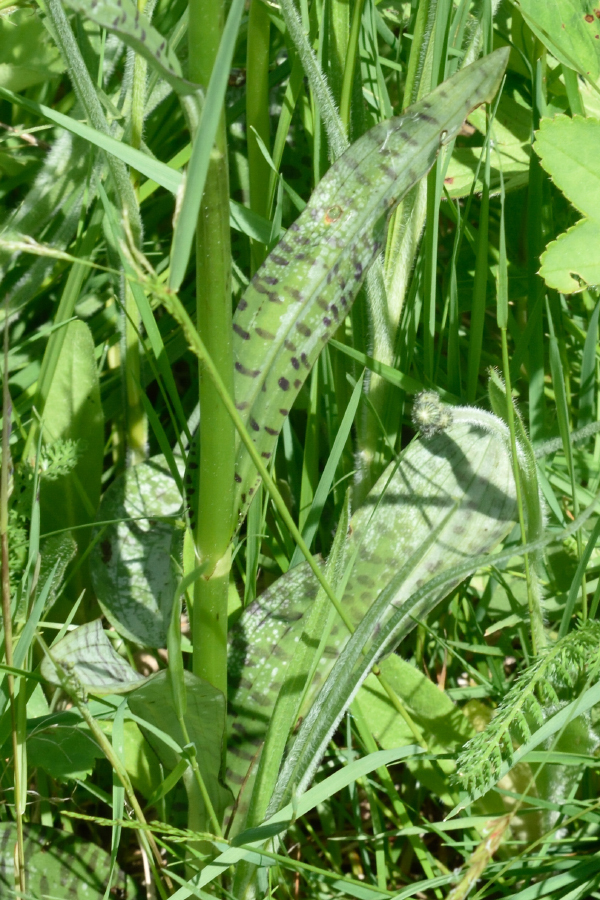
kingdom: Plantae
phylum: Tracheophyta
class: Liliopsida
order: Asparagales
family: Orchidaceae
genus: Dactylorhiza
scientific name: Dactylorhiza maculata
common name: Heath spotted-orchid
